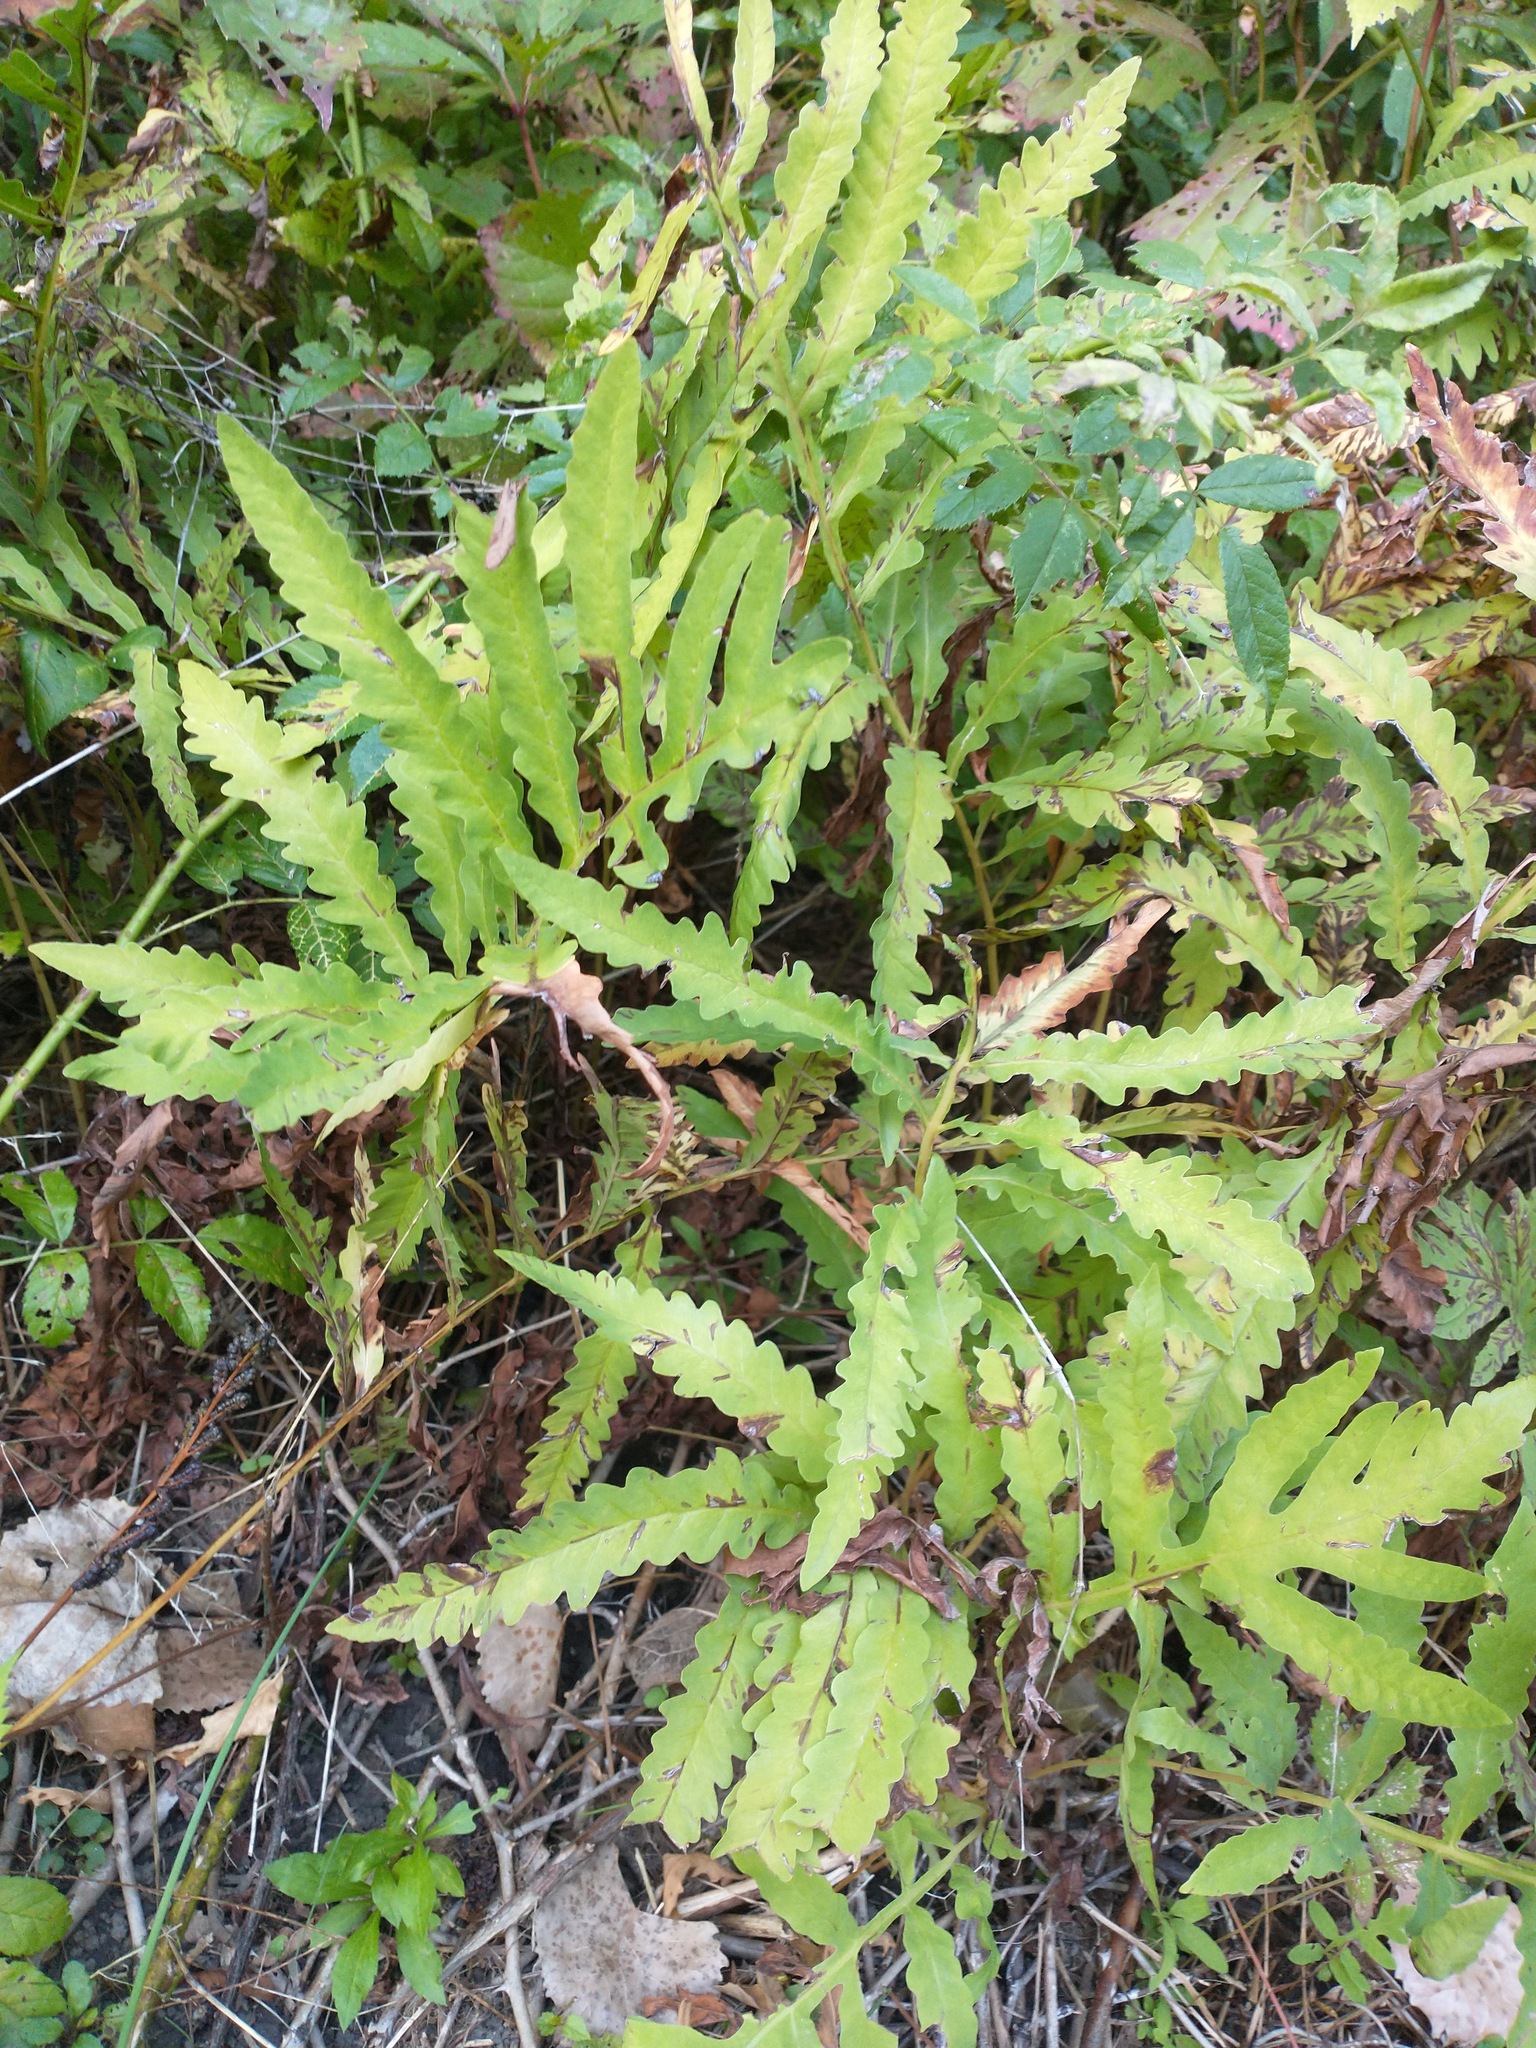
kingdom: Plantae
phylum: Tracheophyta
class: Polypodiopsida
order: Polypodiales
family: Onocleaceae
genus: Onoclea
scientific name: Onoclea sensibilis
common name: Sensitive fern
